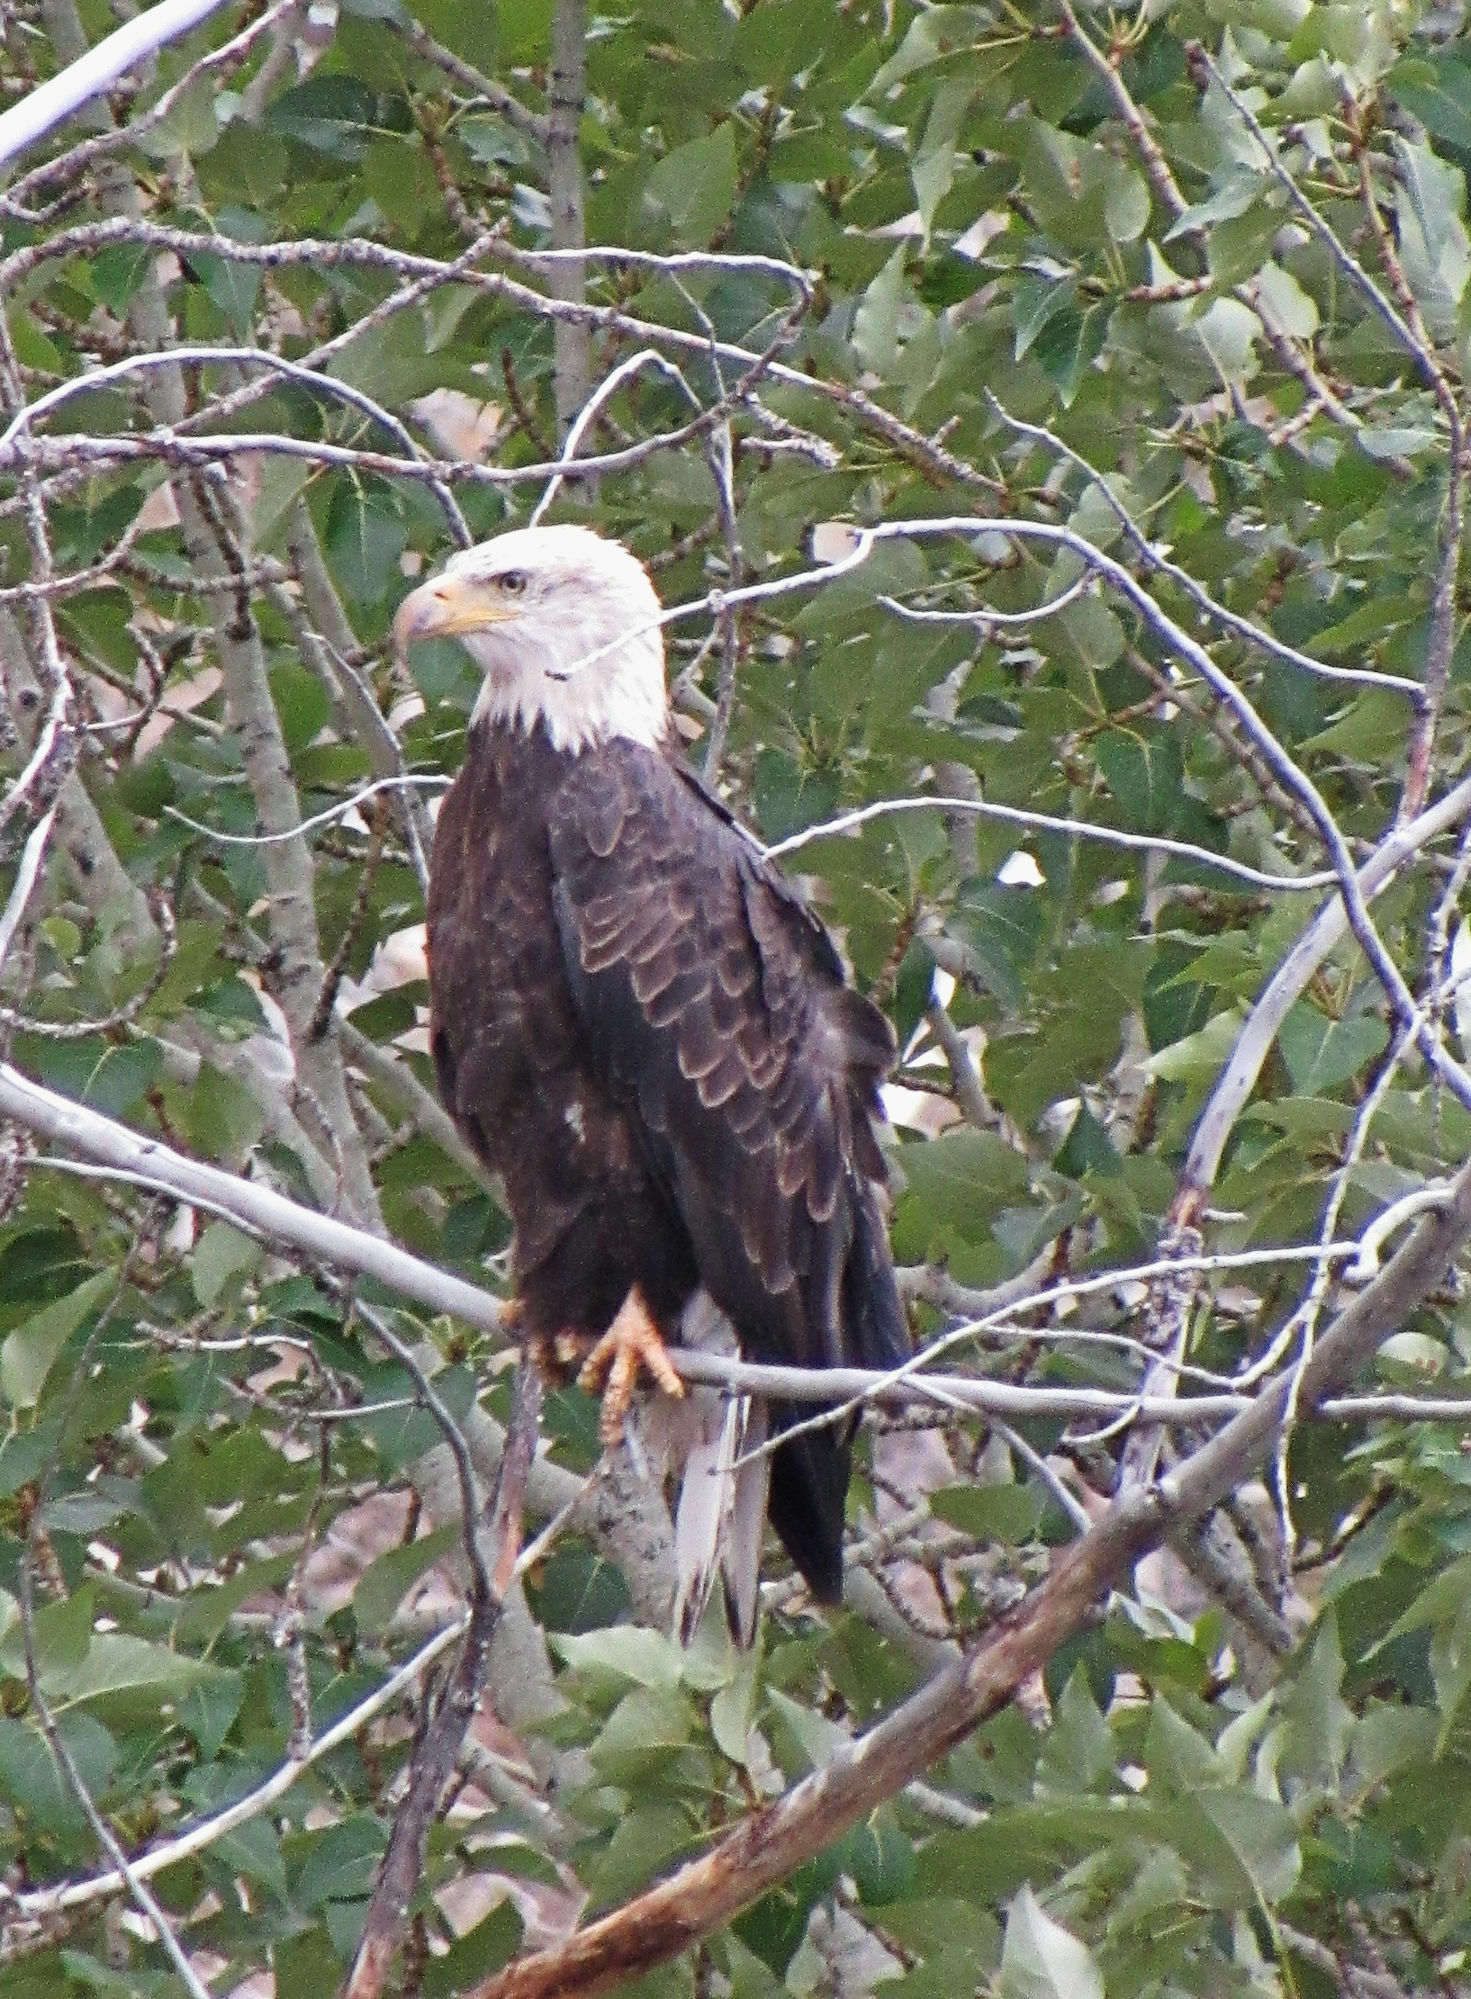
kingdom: Animalia
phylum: Chordata
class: Aves
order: Accipitriformes
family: Accipitridae
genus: Haliaeetus
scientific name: Haliaeetus leucocephalus
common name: Bald eagle
